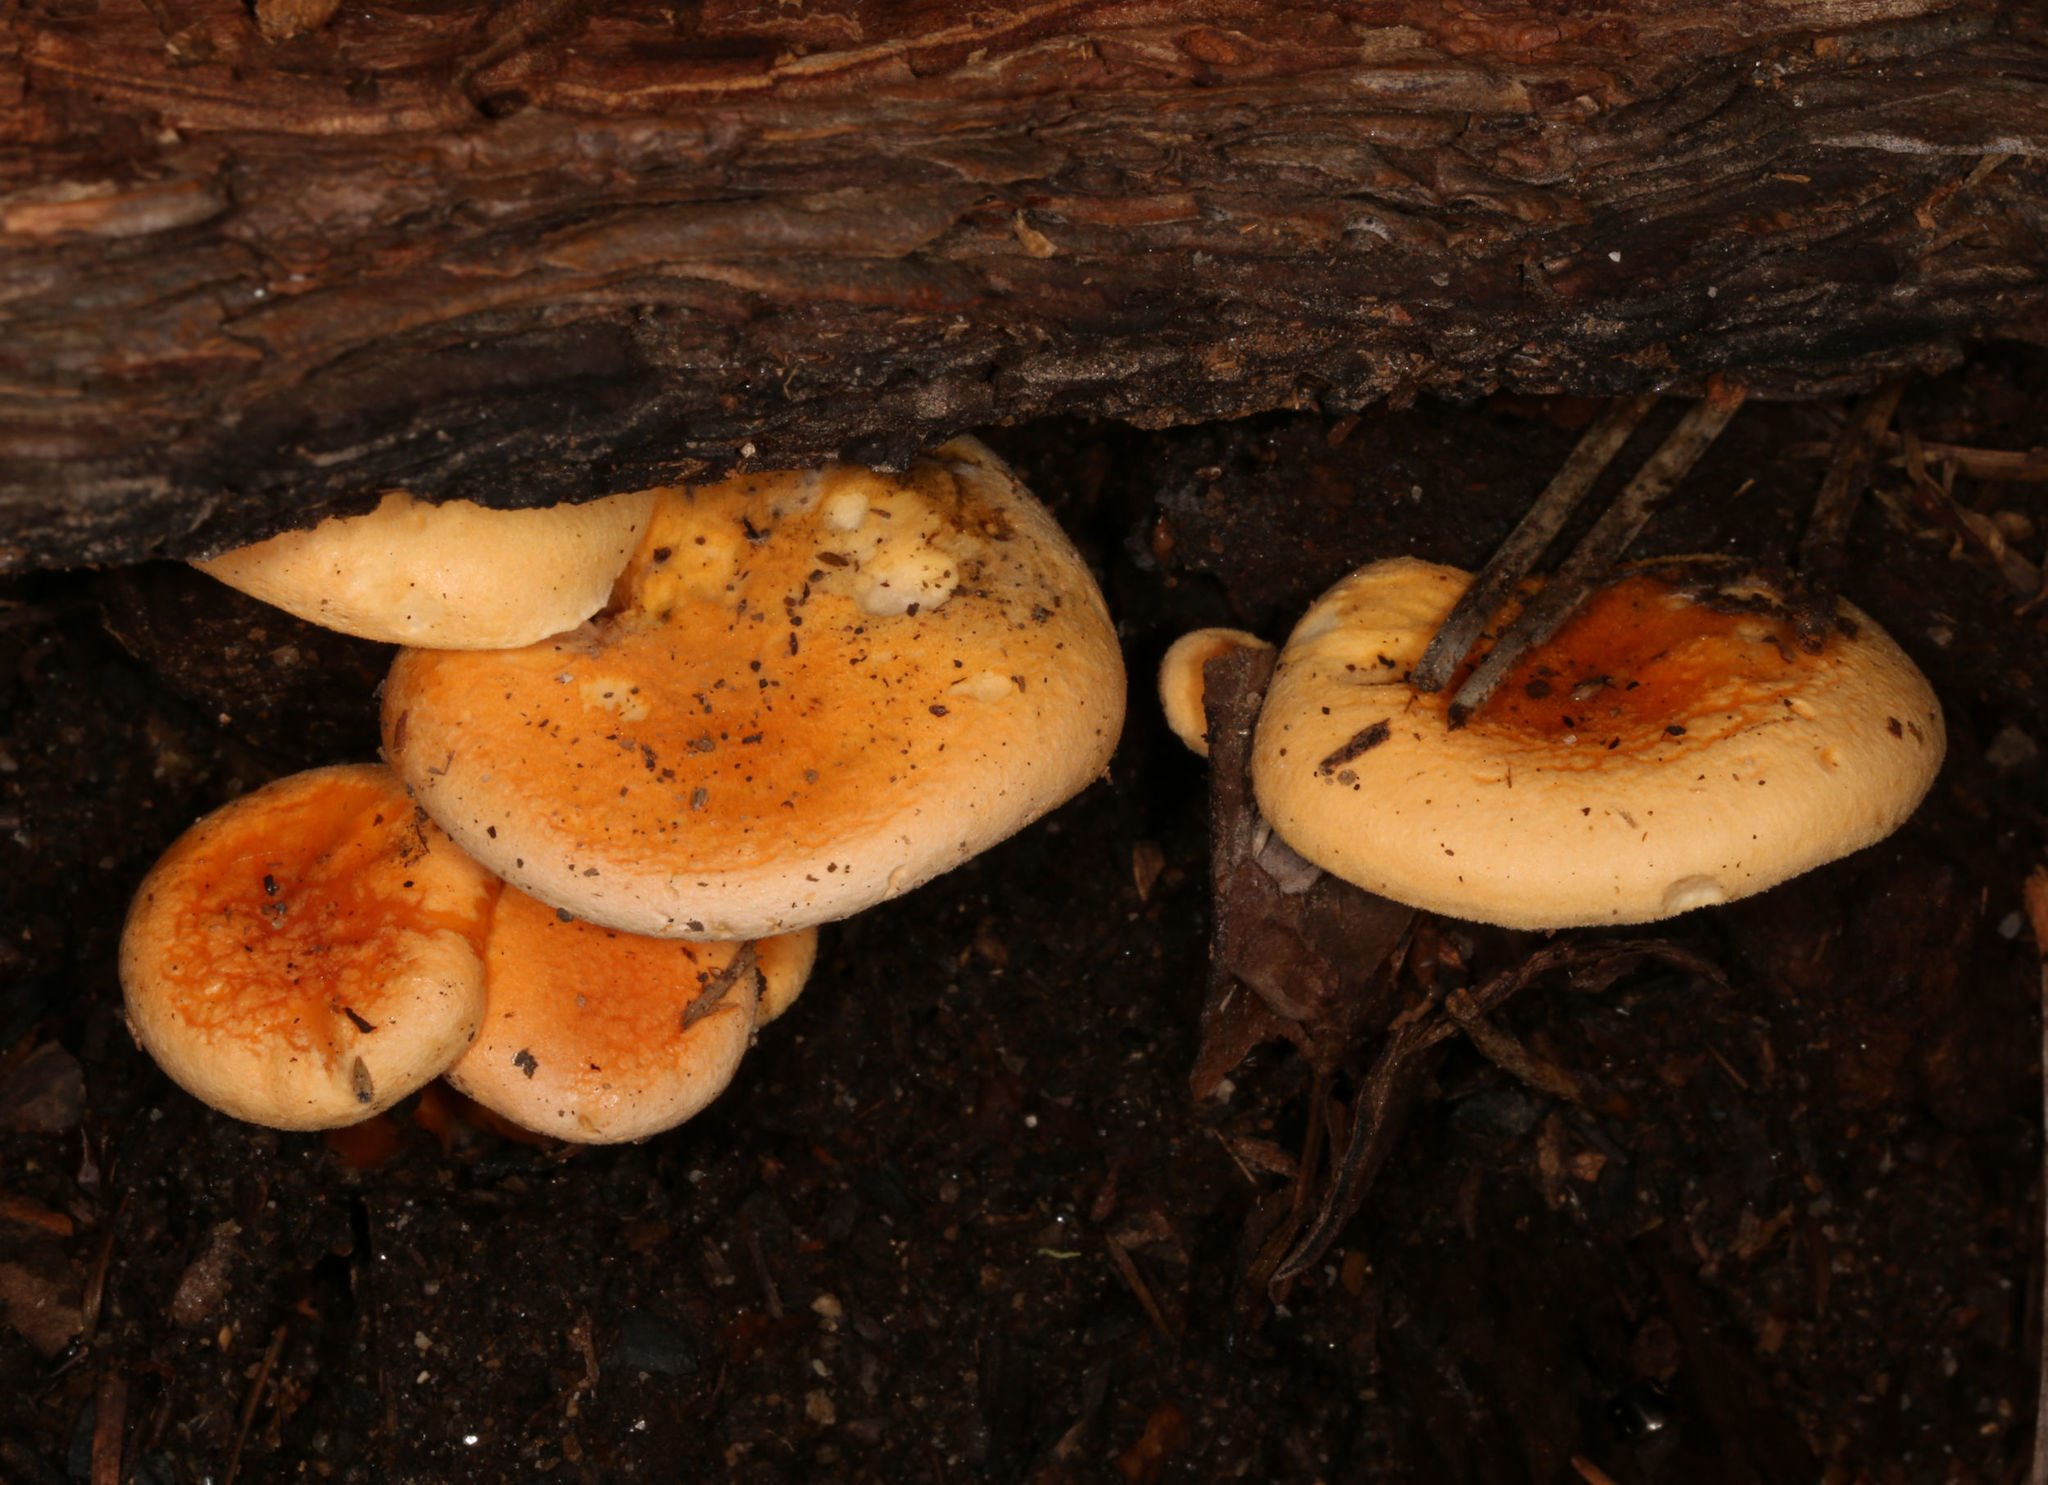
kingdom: Fungi
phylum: Basidiomycota
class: Agaricomycetes
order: Boletales
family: Hygrophoropsidaceae
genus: Hygrophoropsis
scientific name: Hygrophoropsis aurantiaca
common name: False chanterelle
